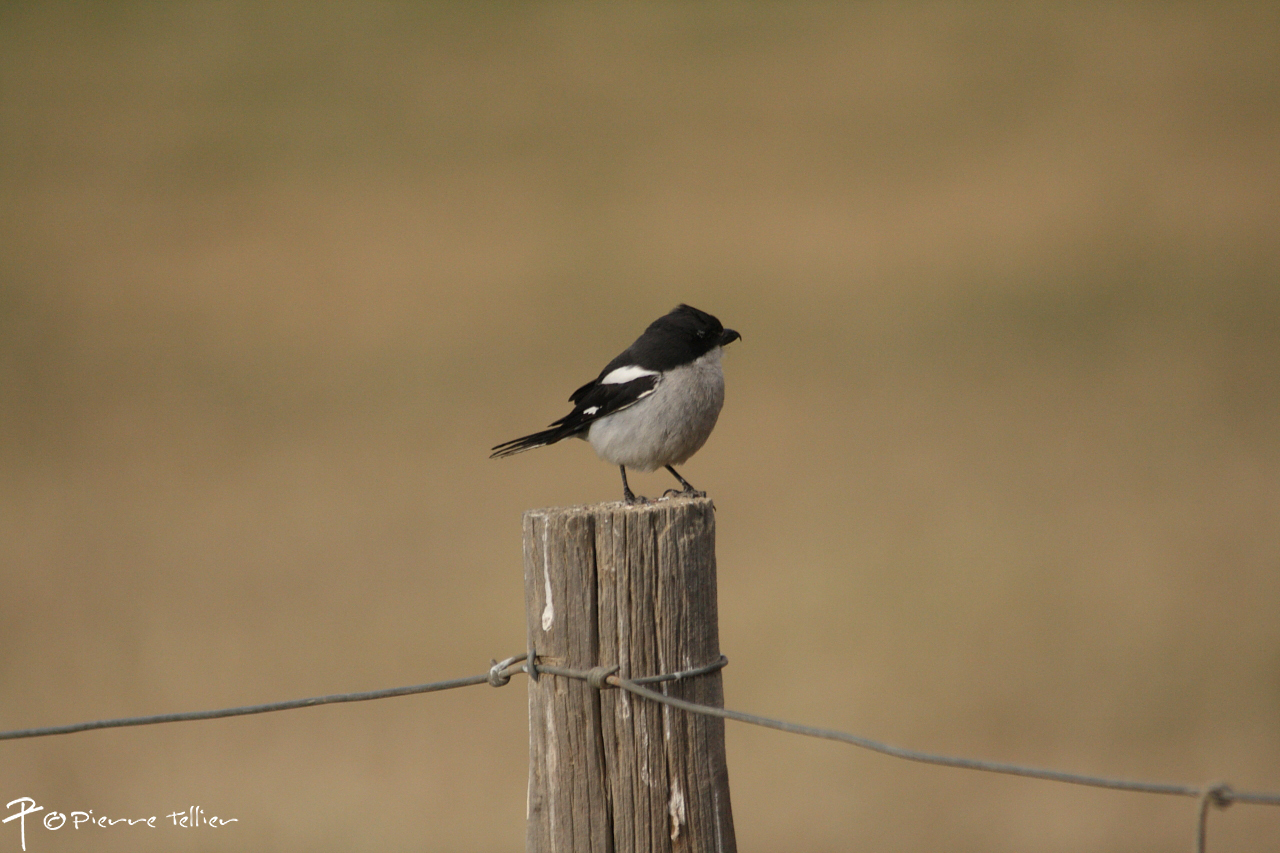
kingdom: Animalia
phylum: Chordata
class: Aves
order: Passeriformes
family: Laniidae
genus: Lanius
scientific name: Lanius collaris
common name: Southern fiscal
